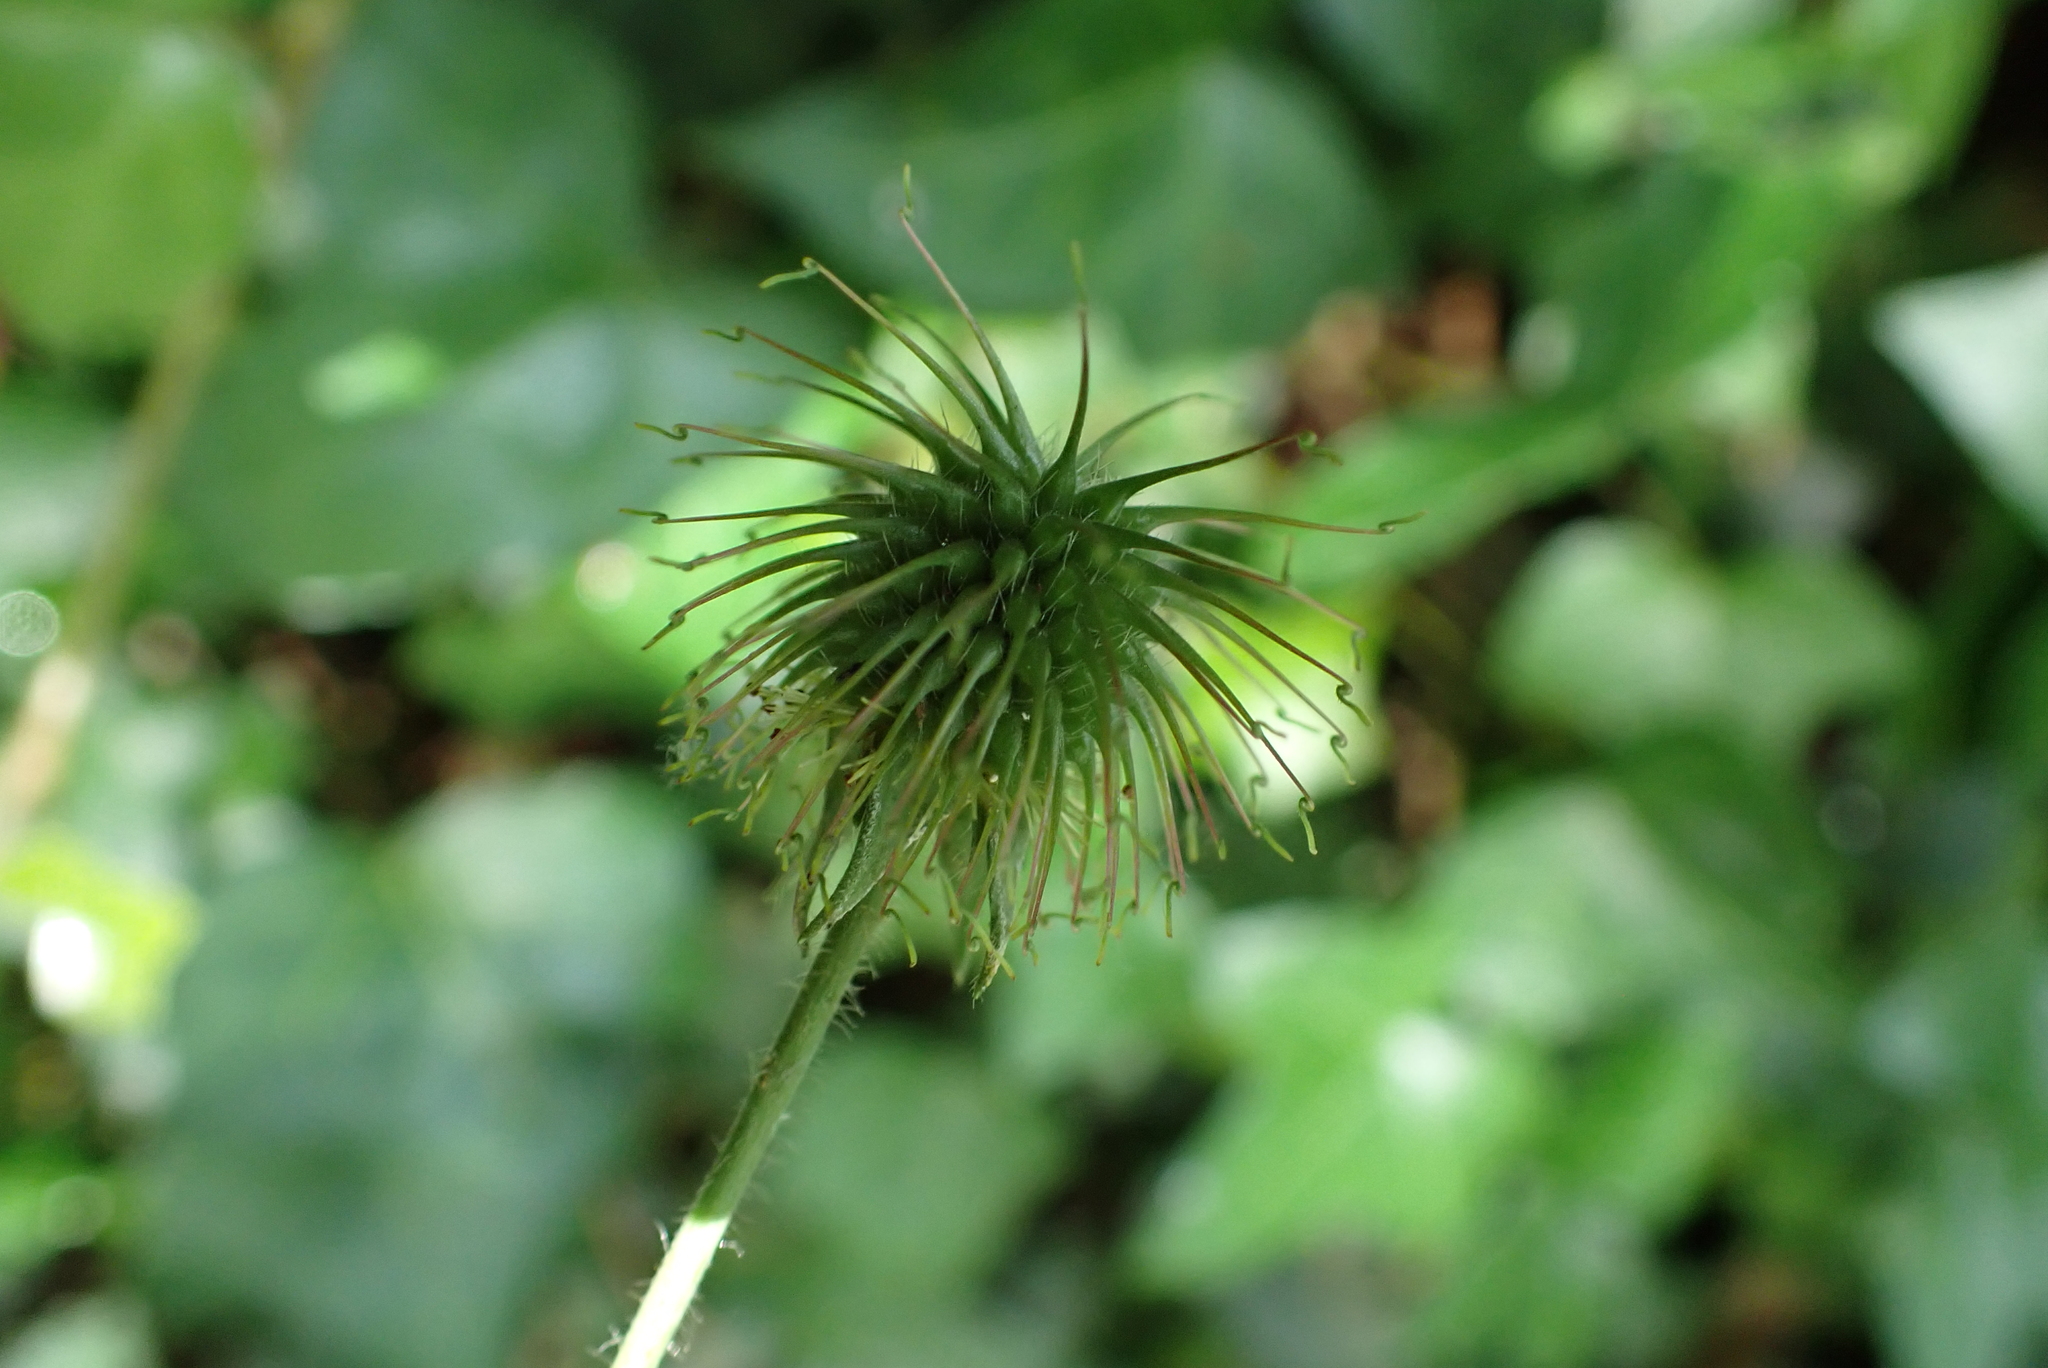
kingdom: Plantae
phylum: Tracheophyta
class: Magnoliopsida
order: Rosales
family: Rosaceae
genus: Geum
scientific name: Geum urbanum
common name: Wood avens
